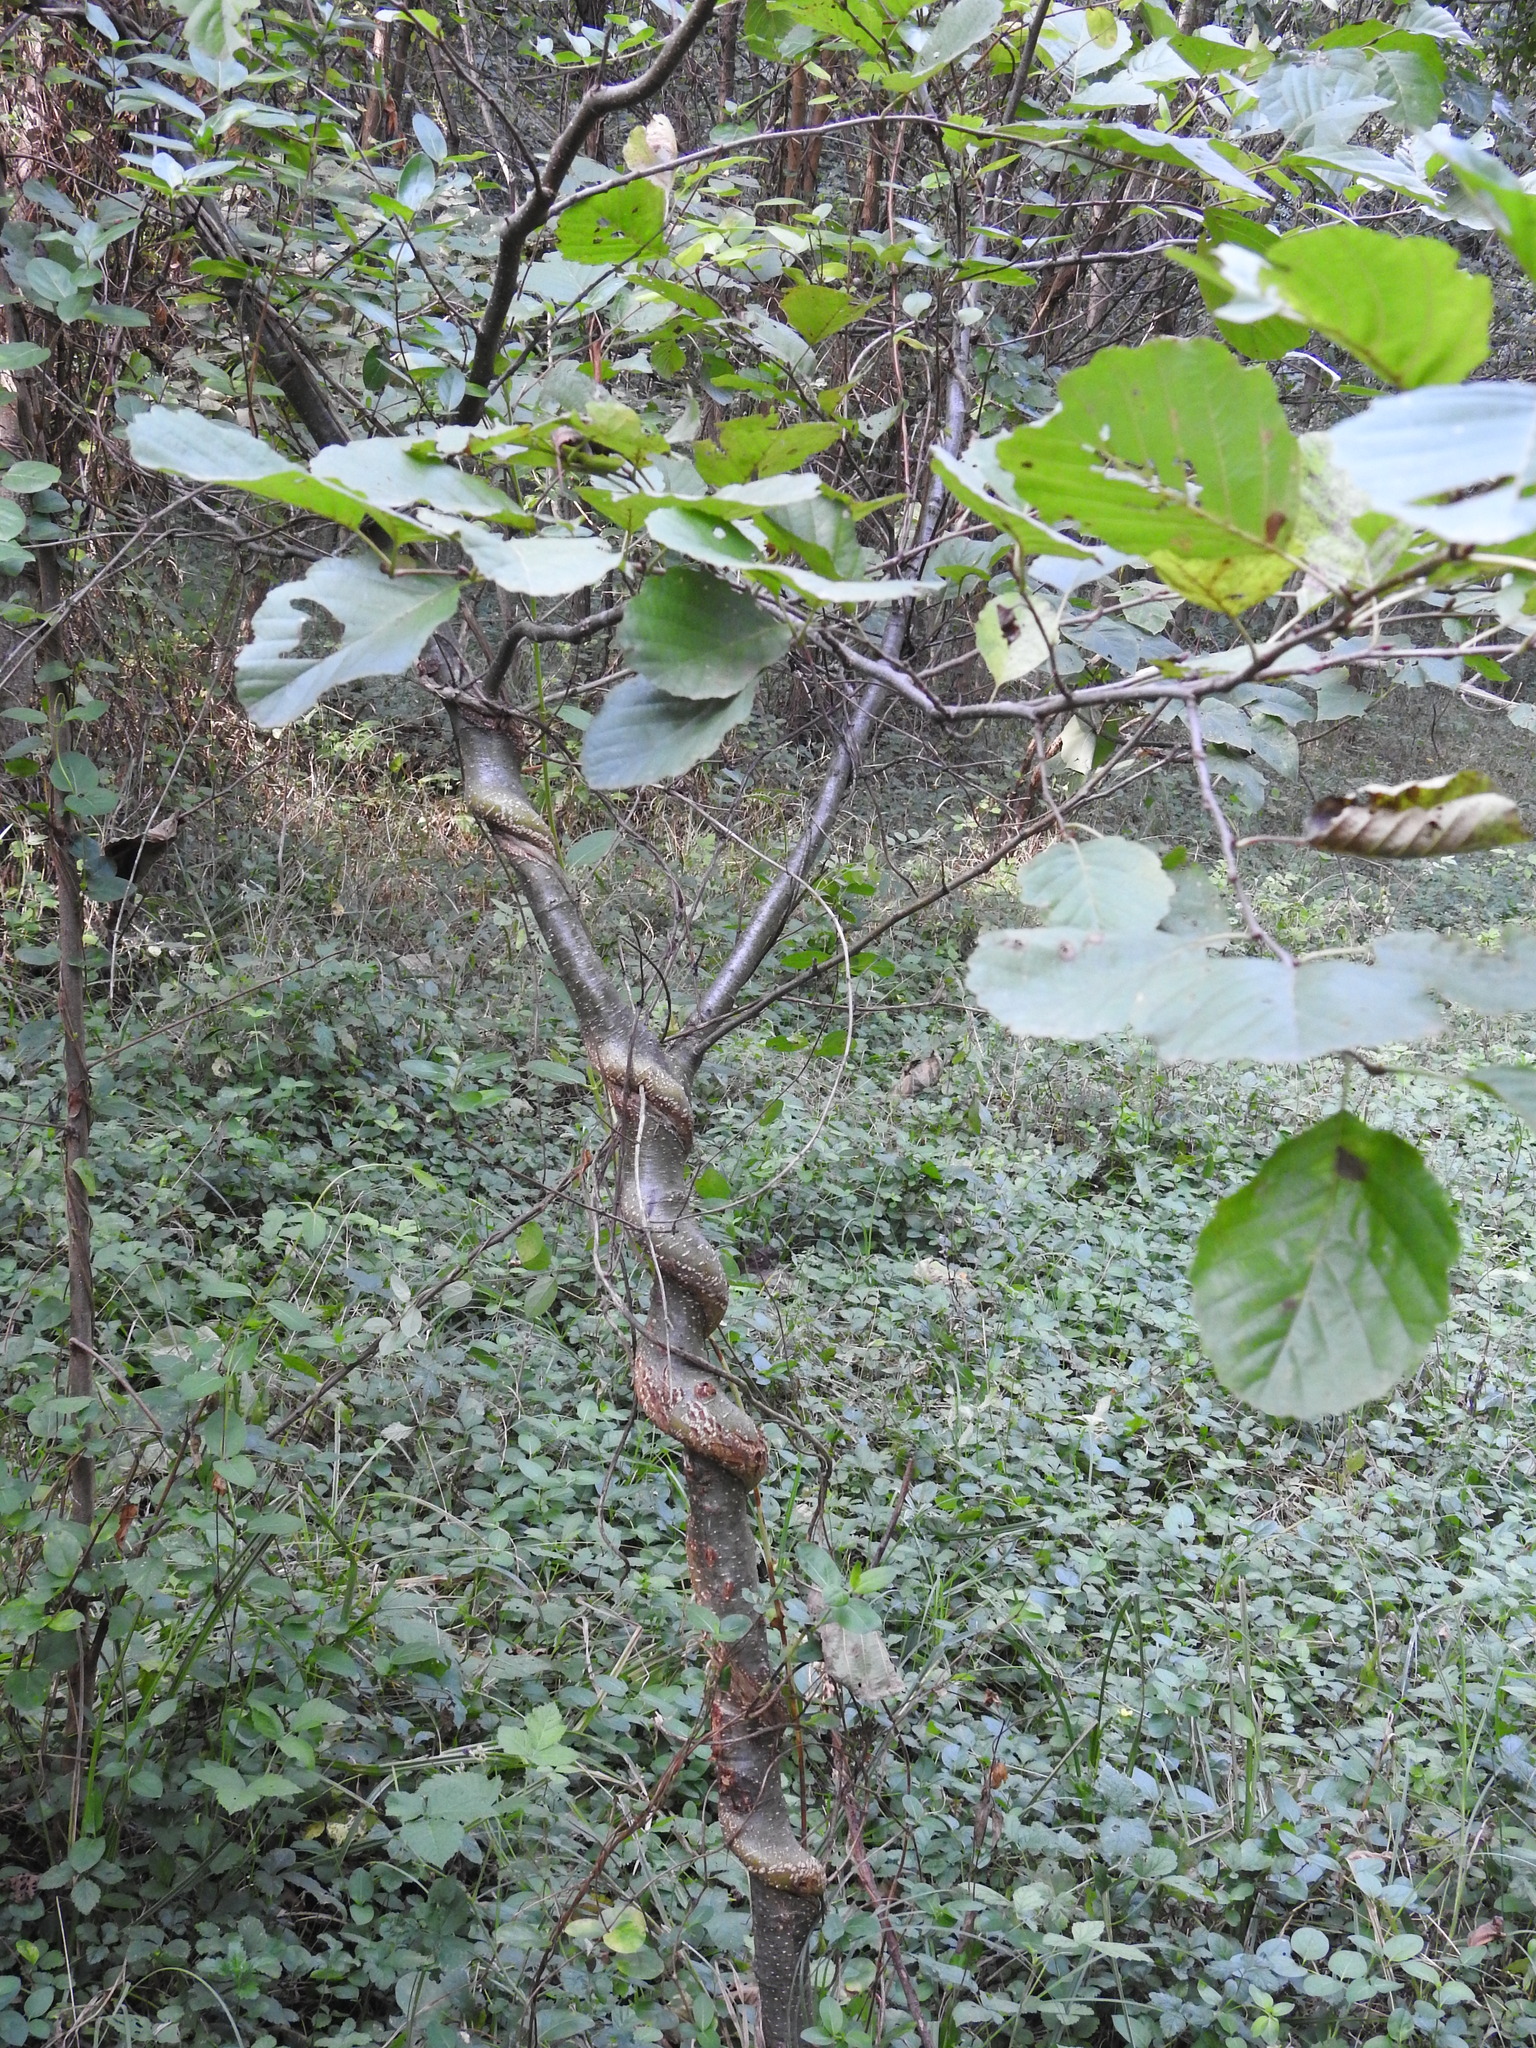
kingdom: Plantae
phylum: Tracheophyta
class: Magnoliopsida
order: Fagales
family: Betulaceae
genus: Alnus
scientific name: Alnus glutinosa
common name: Black alder
